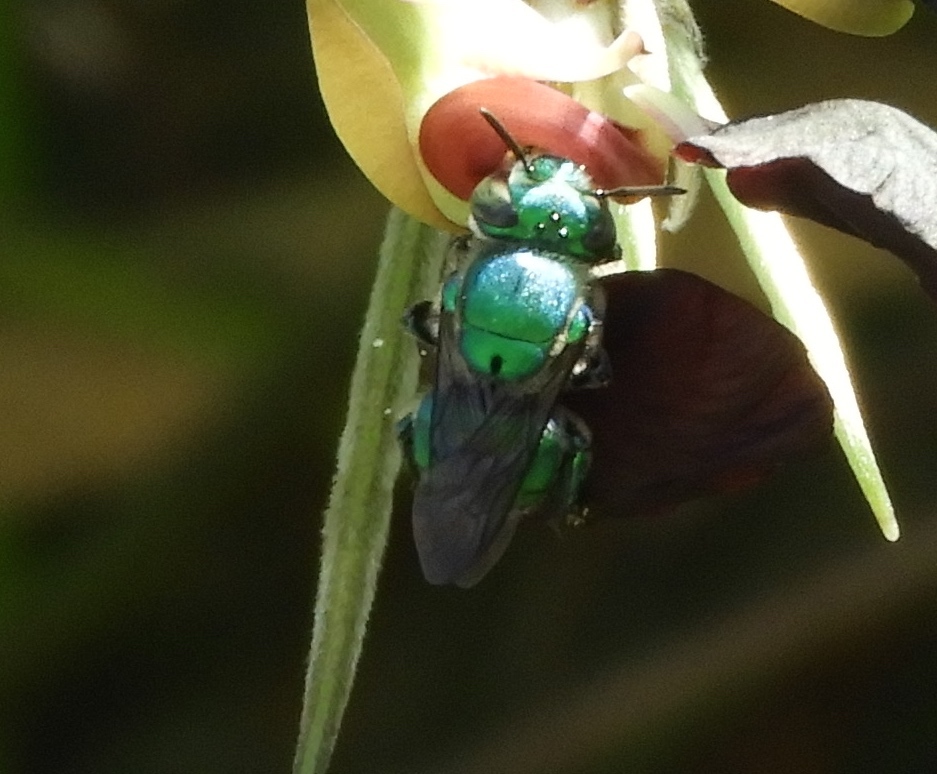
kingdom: Animalia
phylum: Arthropoda
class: Insecta
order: Hymenoptera
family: Apidae
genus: Euglossa
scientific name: Euglossa
